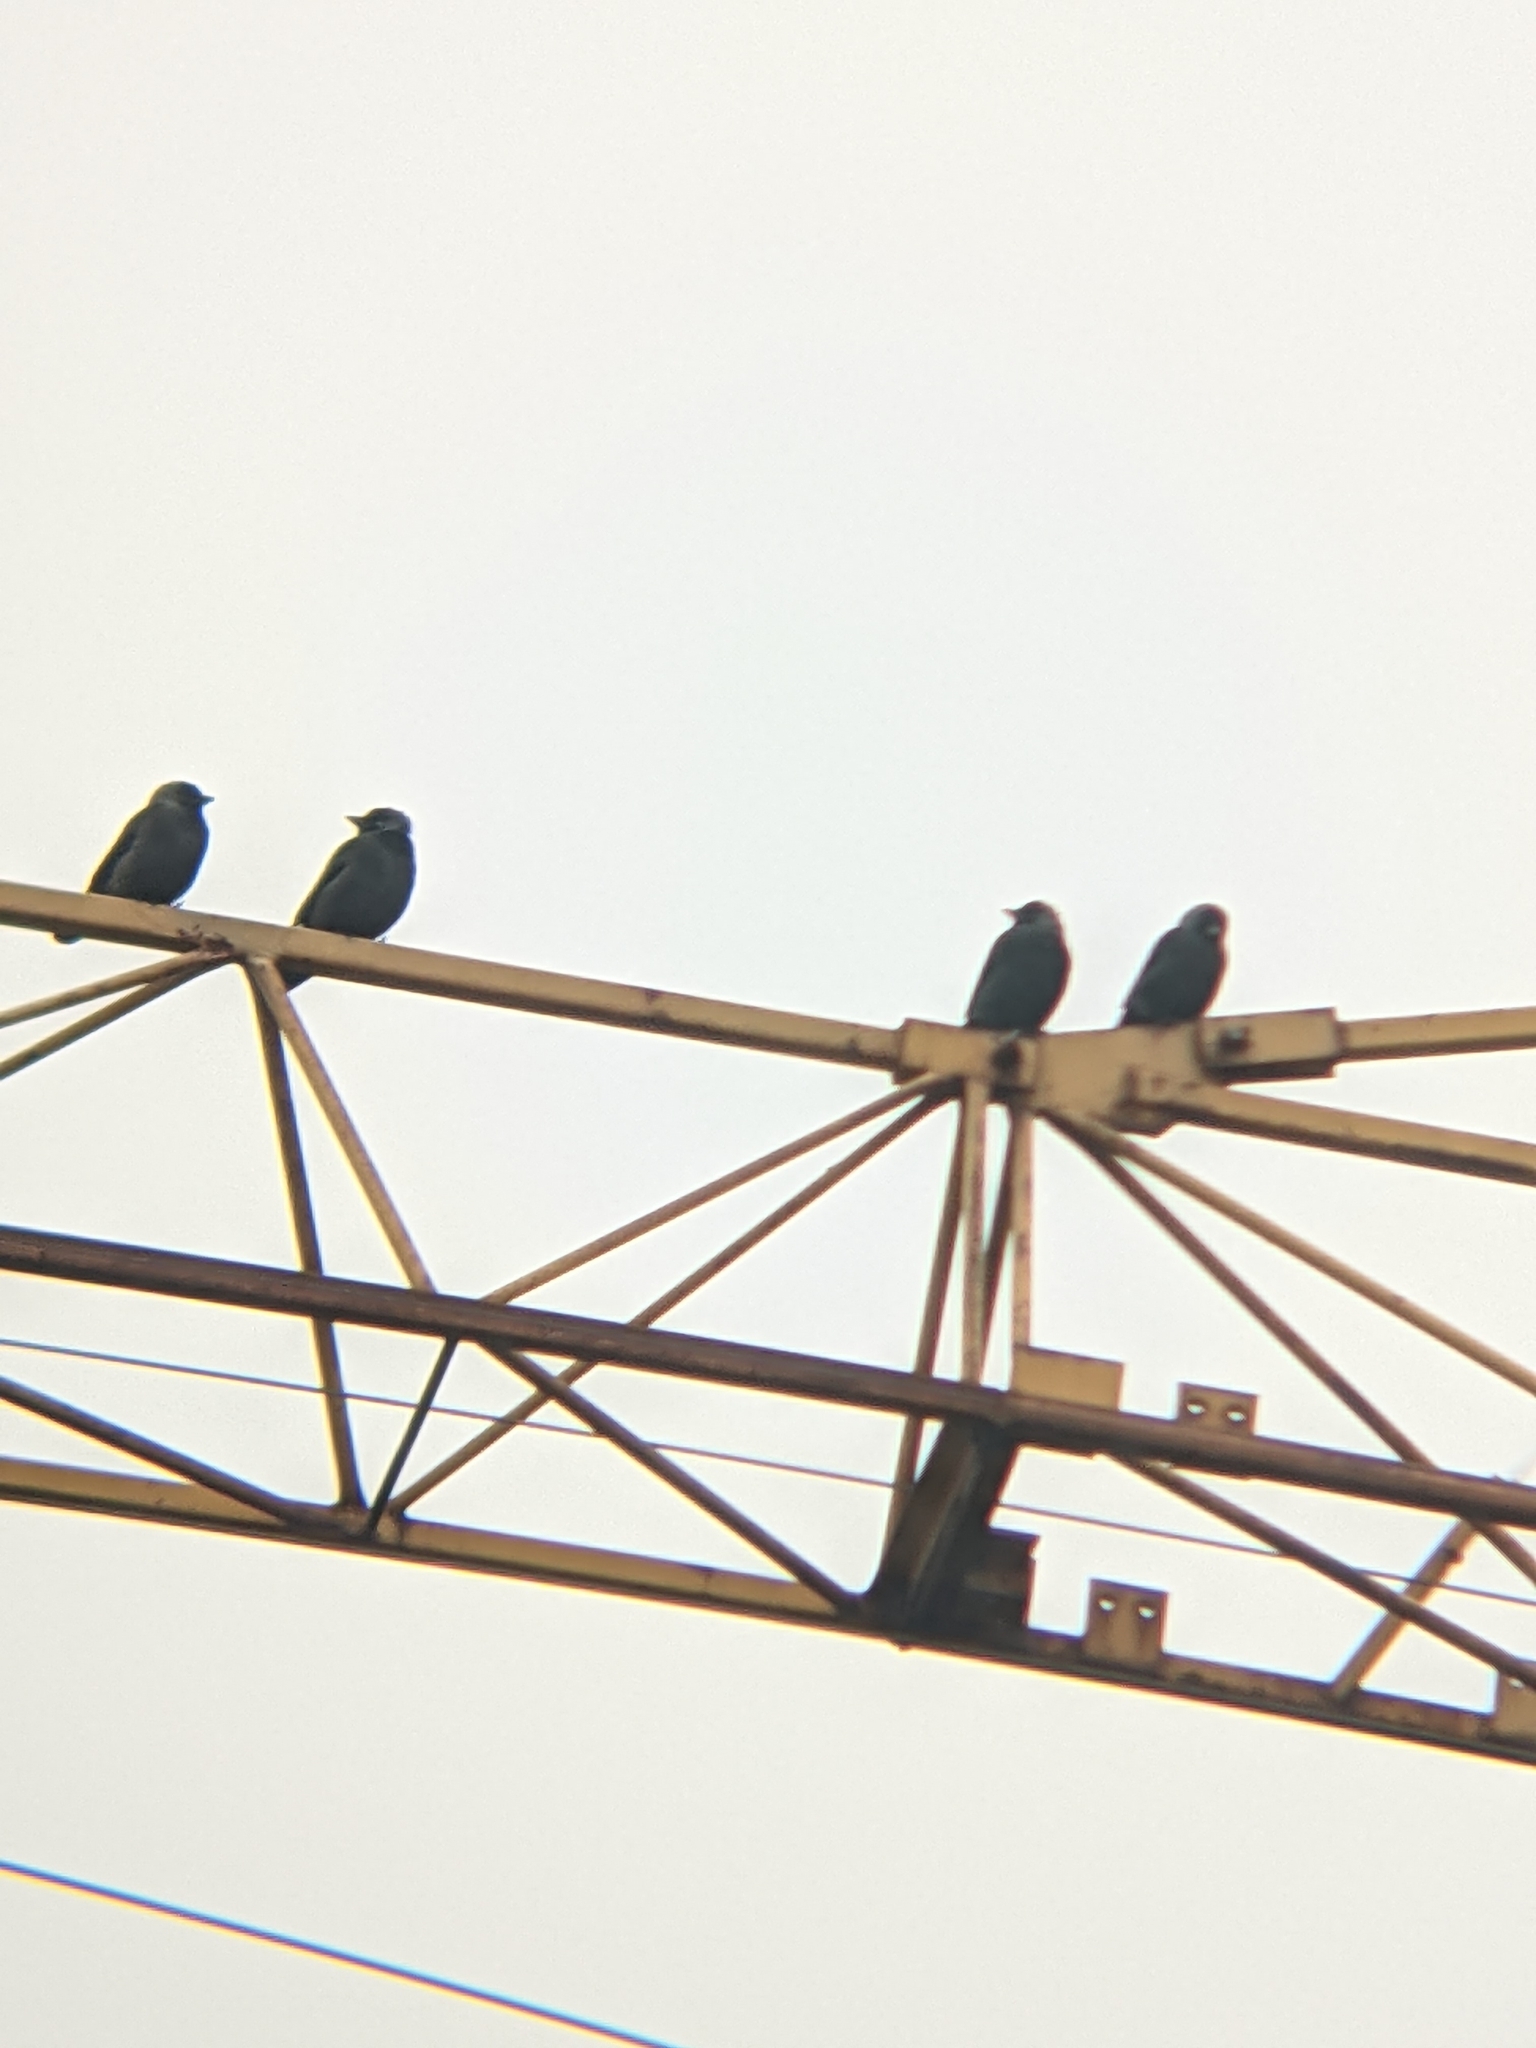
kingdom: Animalia
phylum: Chordata
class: Aves
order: Passeriformes
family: Corvidae
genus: Coloeus
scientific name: Coloeus monedula
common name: Western jackdaw
